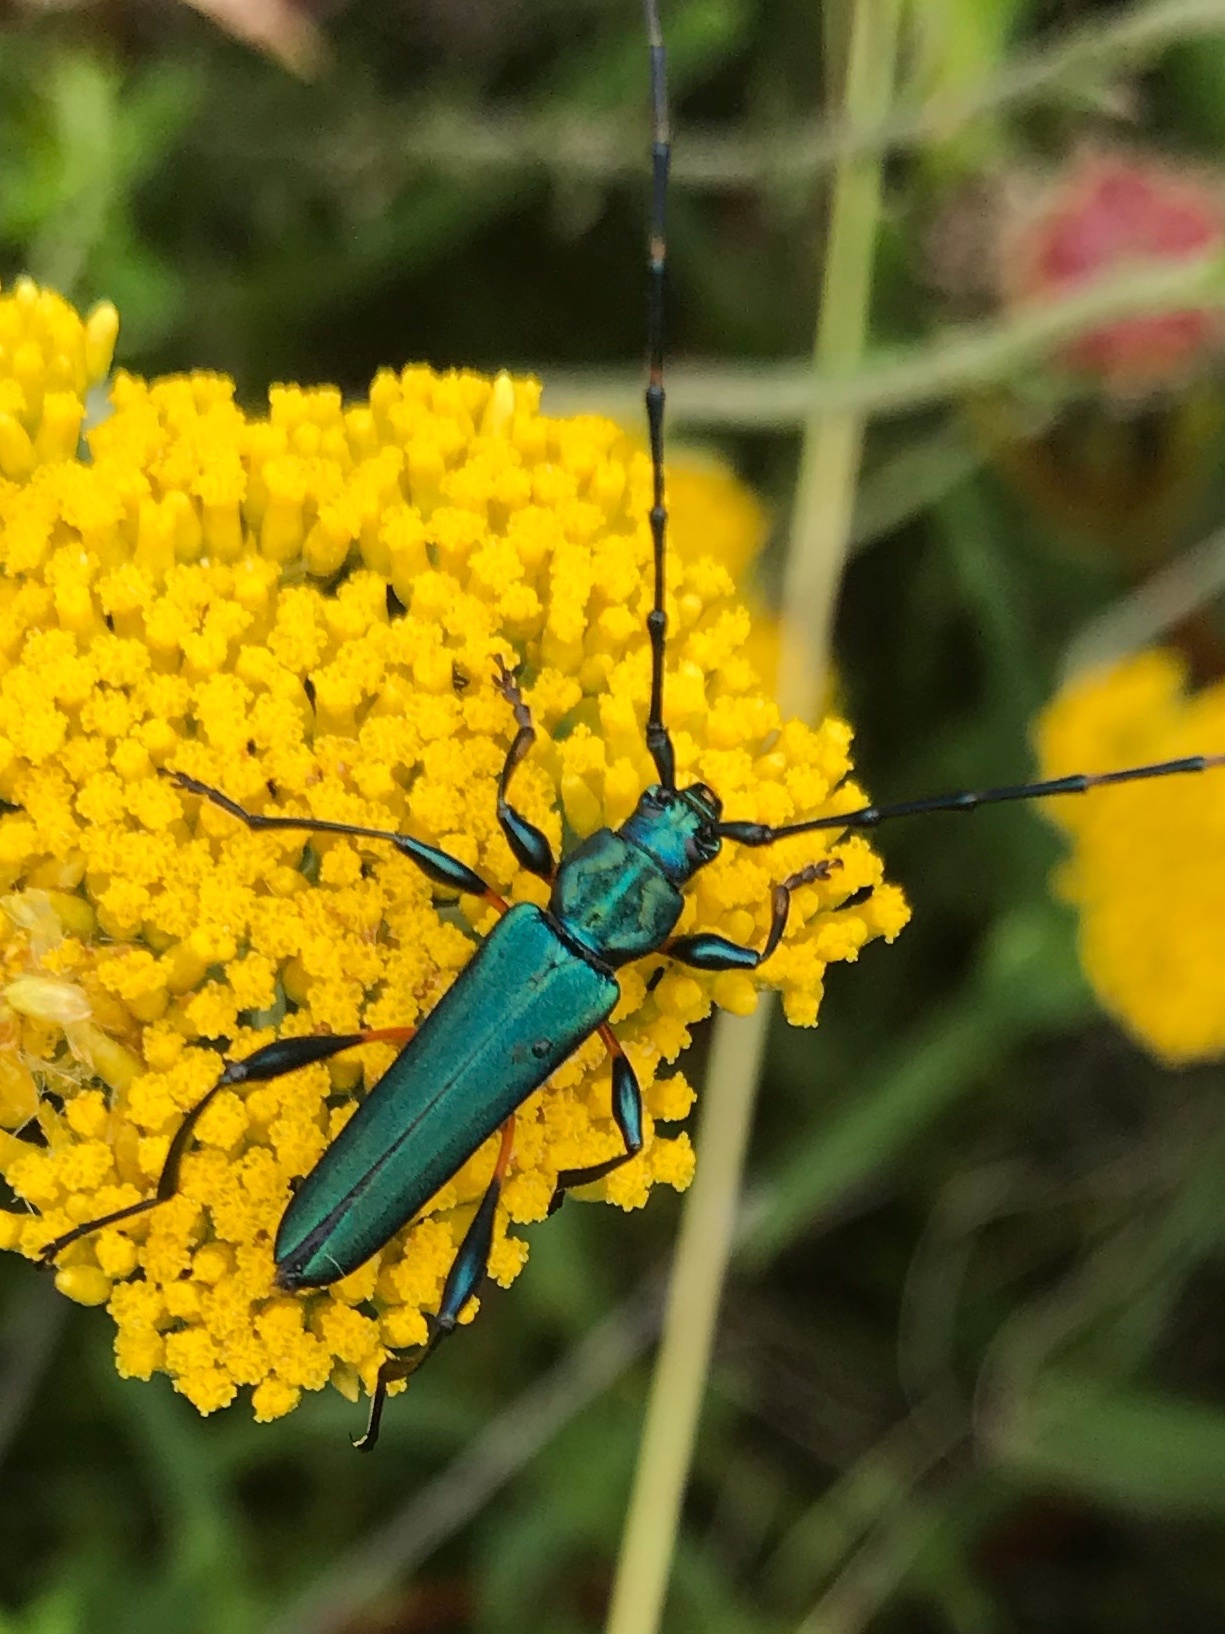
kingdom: Animalia
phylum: Arthropoda
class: Insecta
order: Coleoptera
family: Cerambycidae
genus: Litopus
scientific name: Litopus latipes
